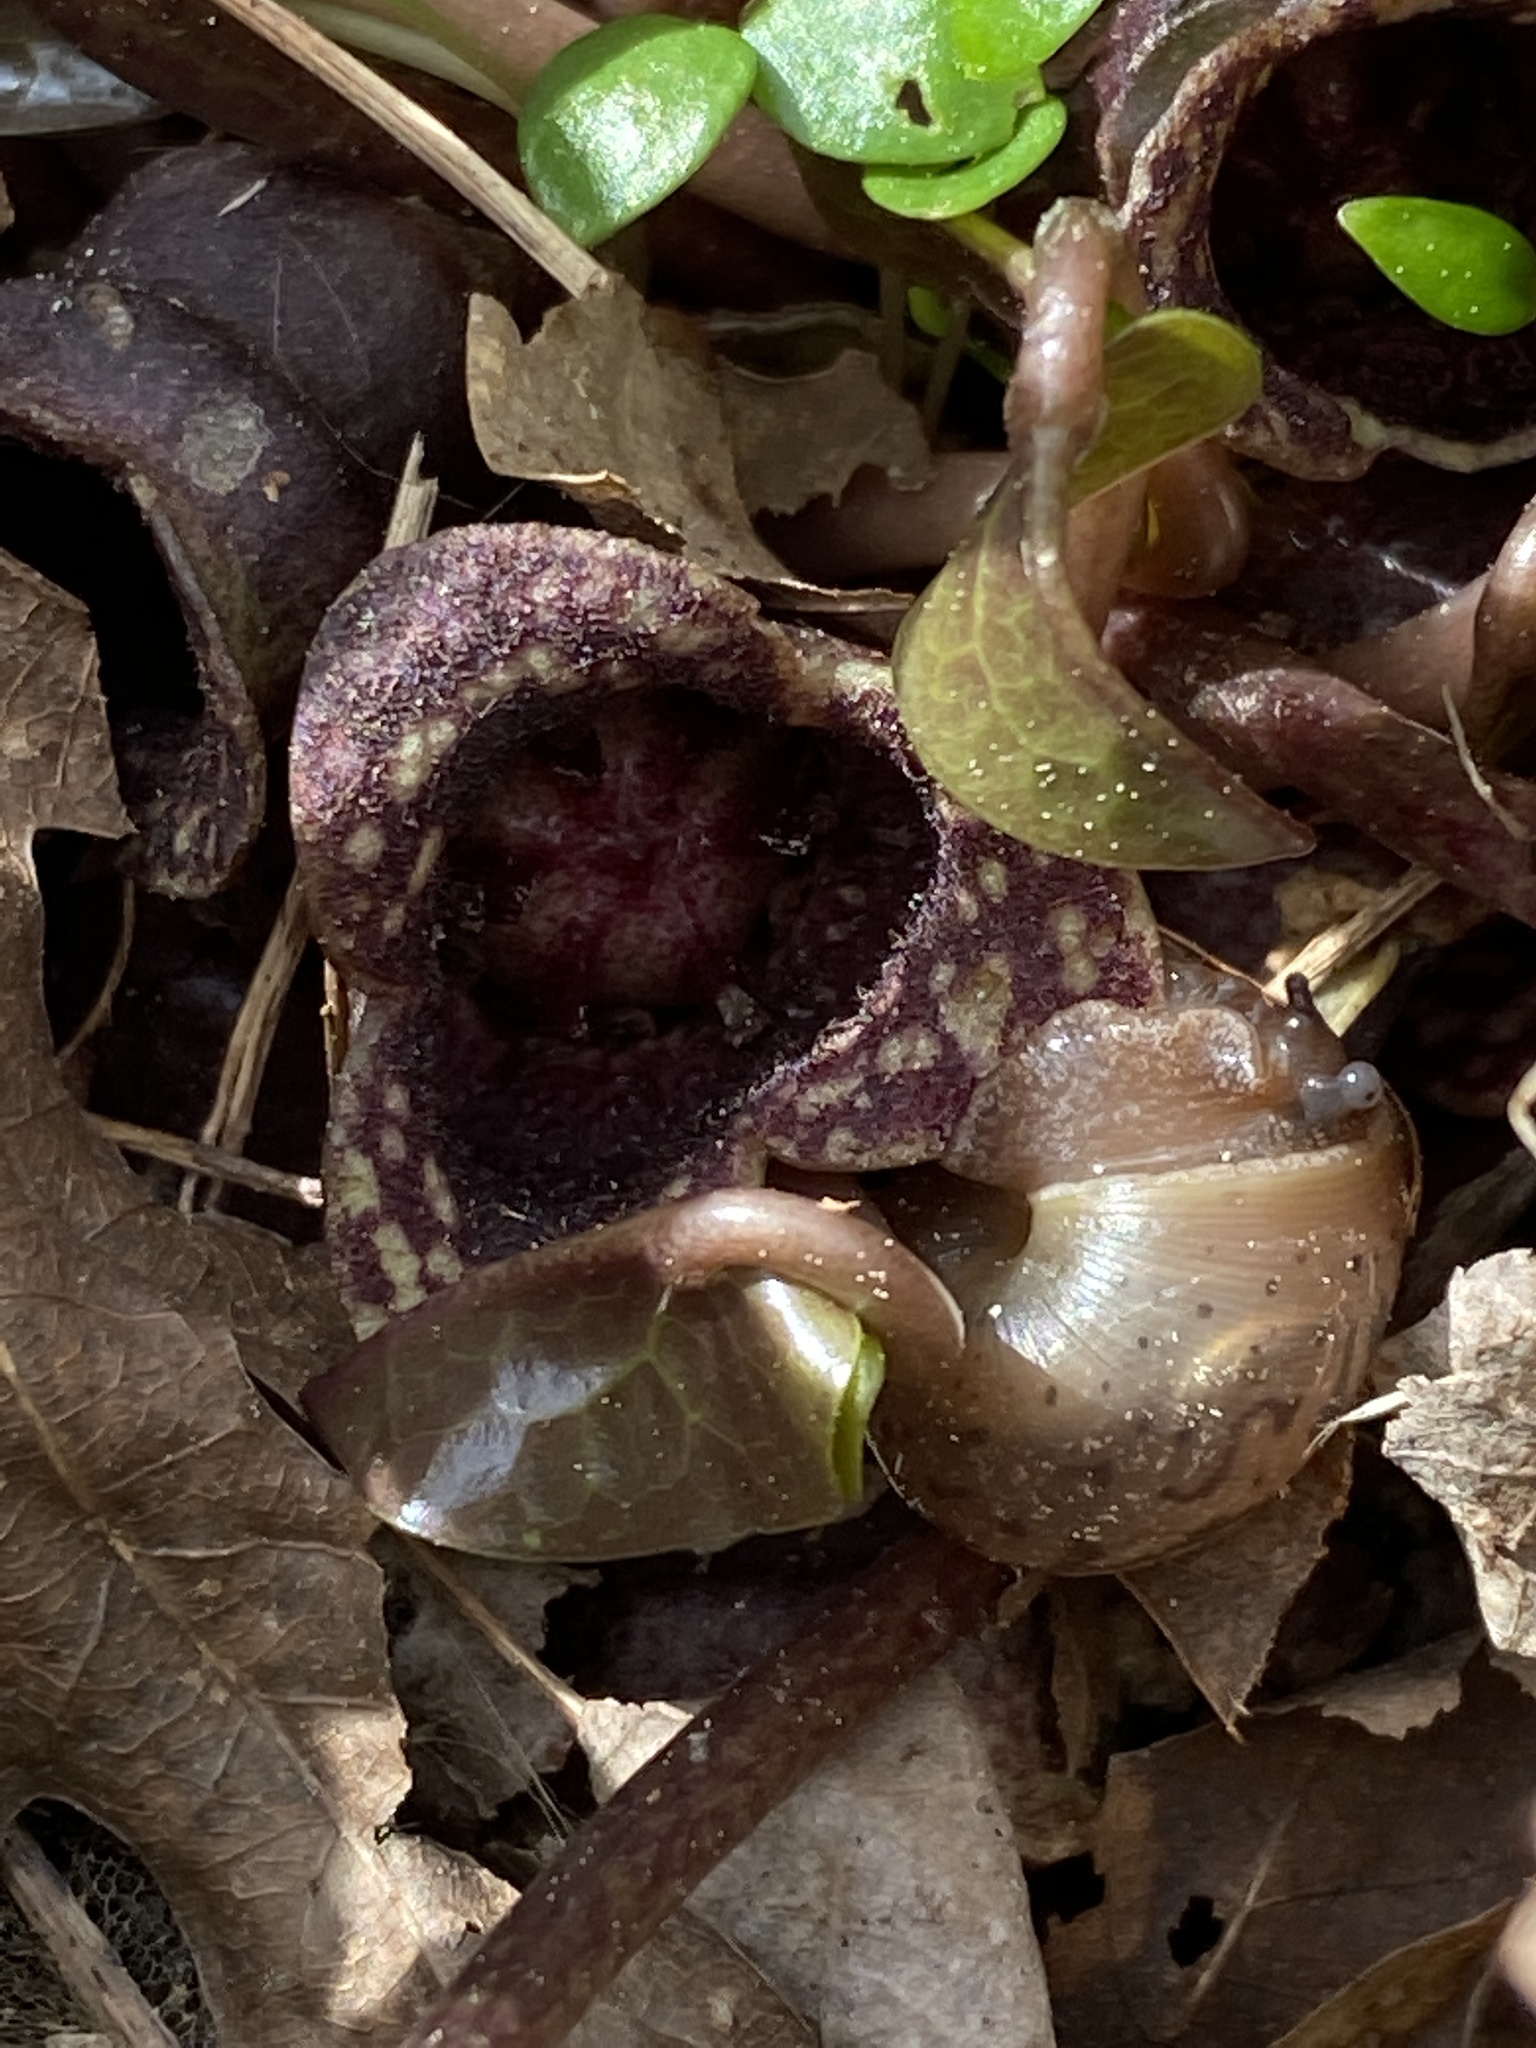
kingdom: Plantae
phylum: Tracheophyta
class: Magnoliopsida
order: Piperales
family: Aristolochiaceae
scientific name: Aristolochiaceae
